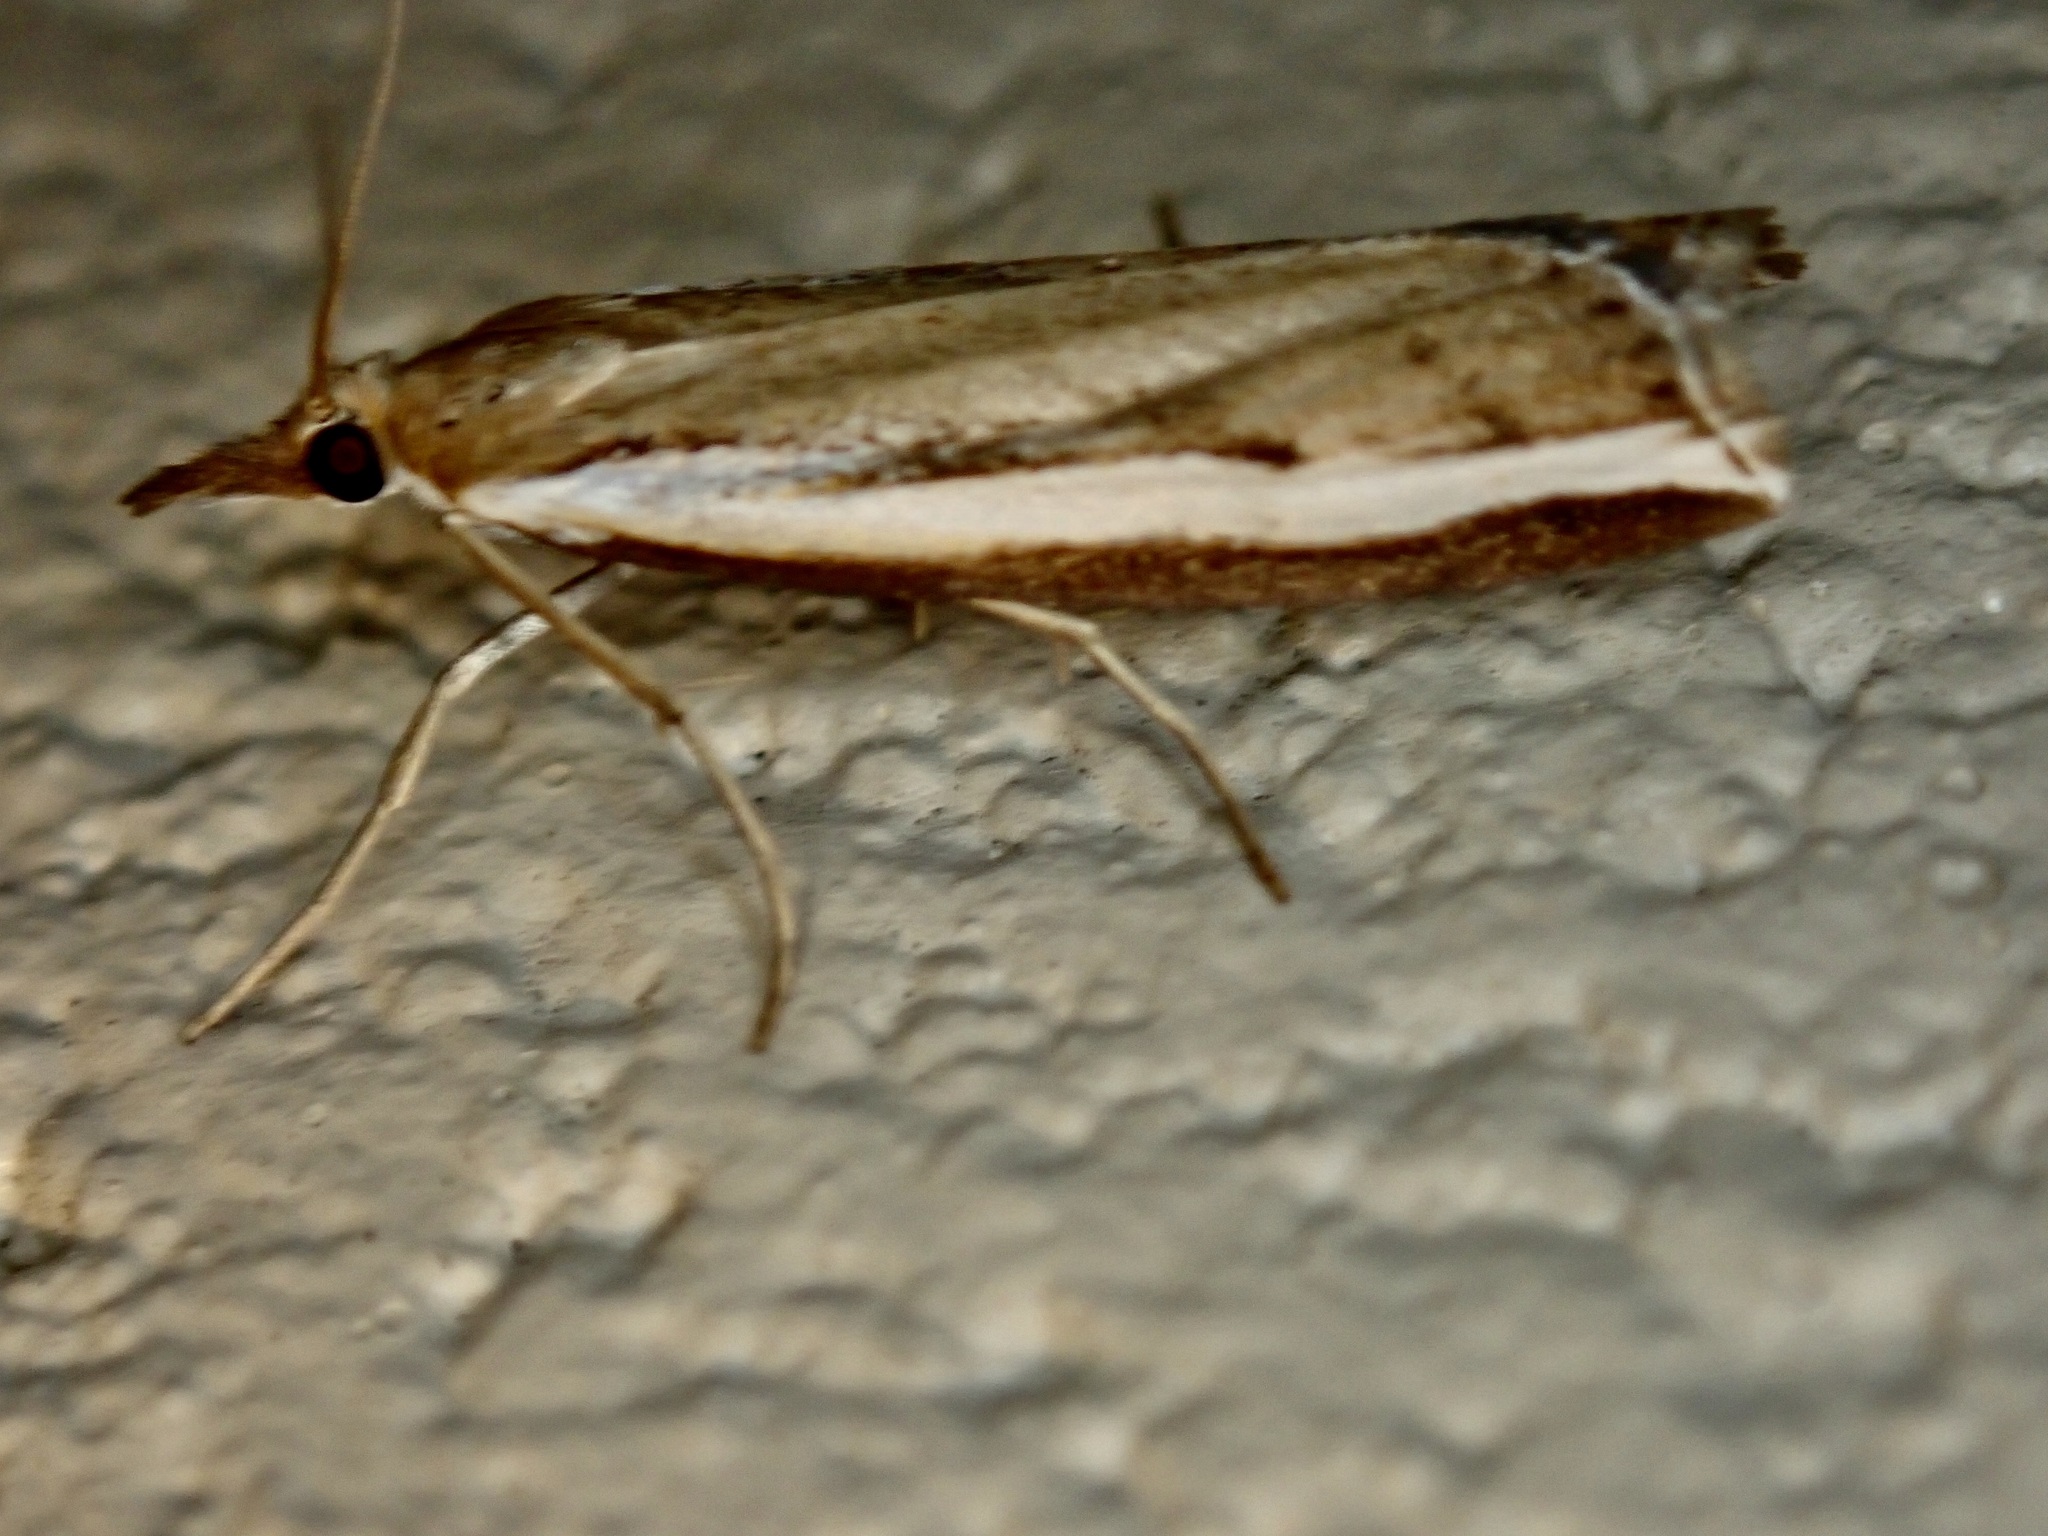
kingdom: Animalia
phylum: Arthropoda
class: Insecta
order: Lepidoptera
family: Crambidae
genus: Orocrambus
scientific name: Orocrambus flexuosellus
